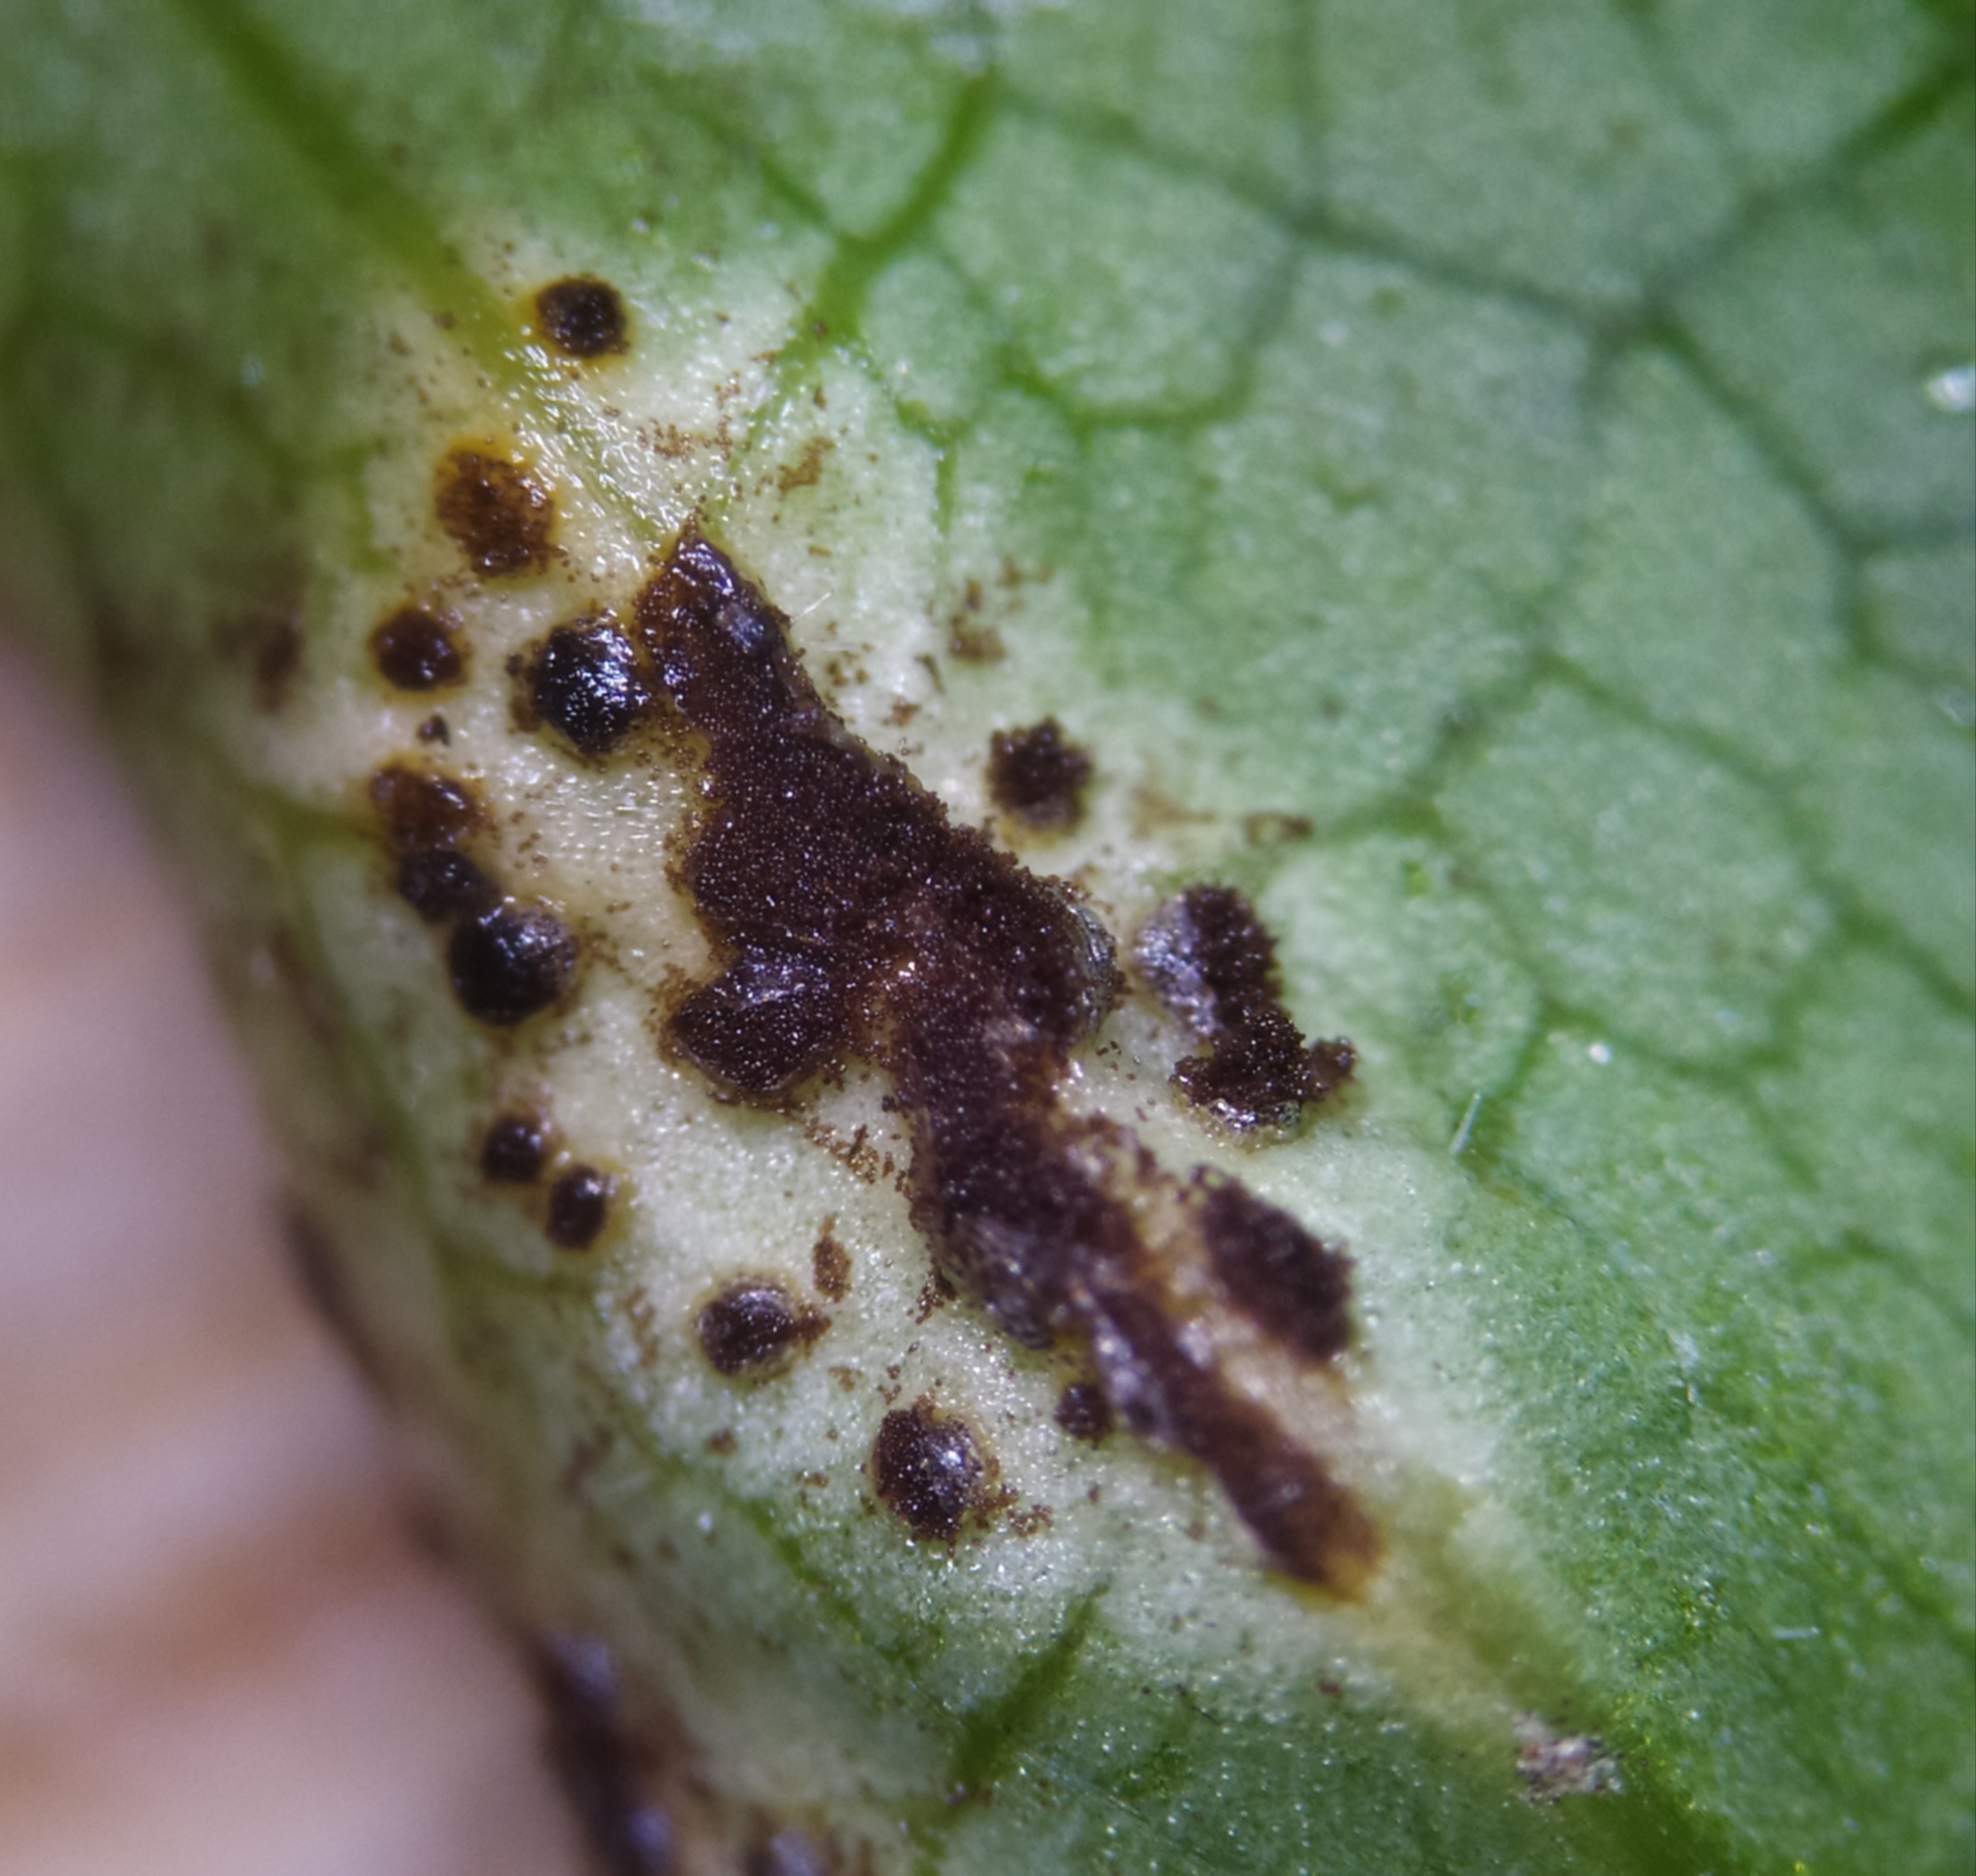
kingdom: Fungi
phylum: Basidiomycota
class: Pucciniomycetes
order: Pucciniales
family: Pucciniaceae
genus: Puccinia
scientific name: Puccinia aegopodii
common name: Ground elder rust
